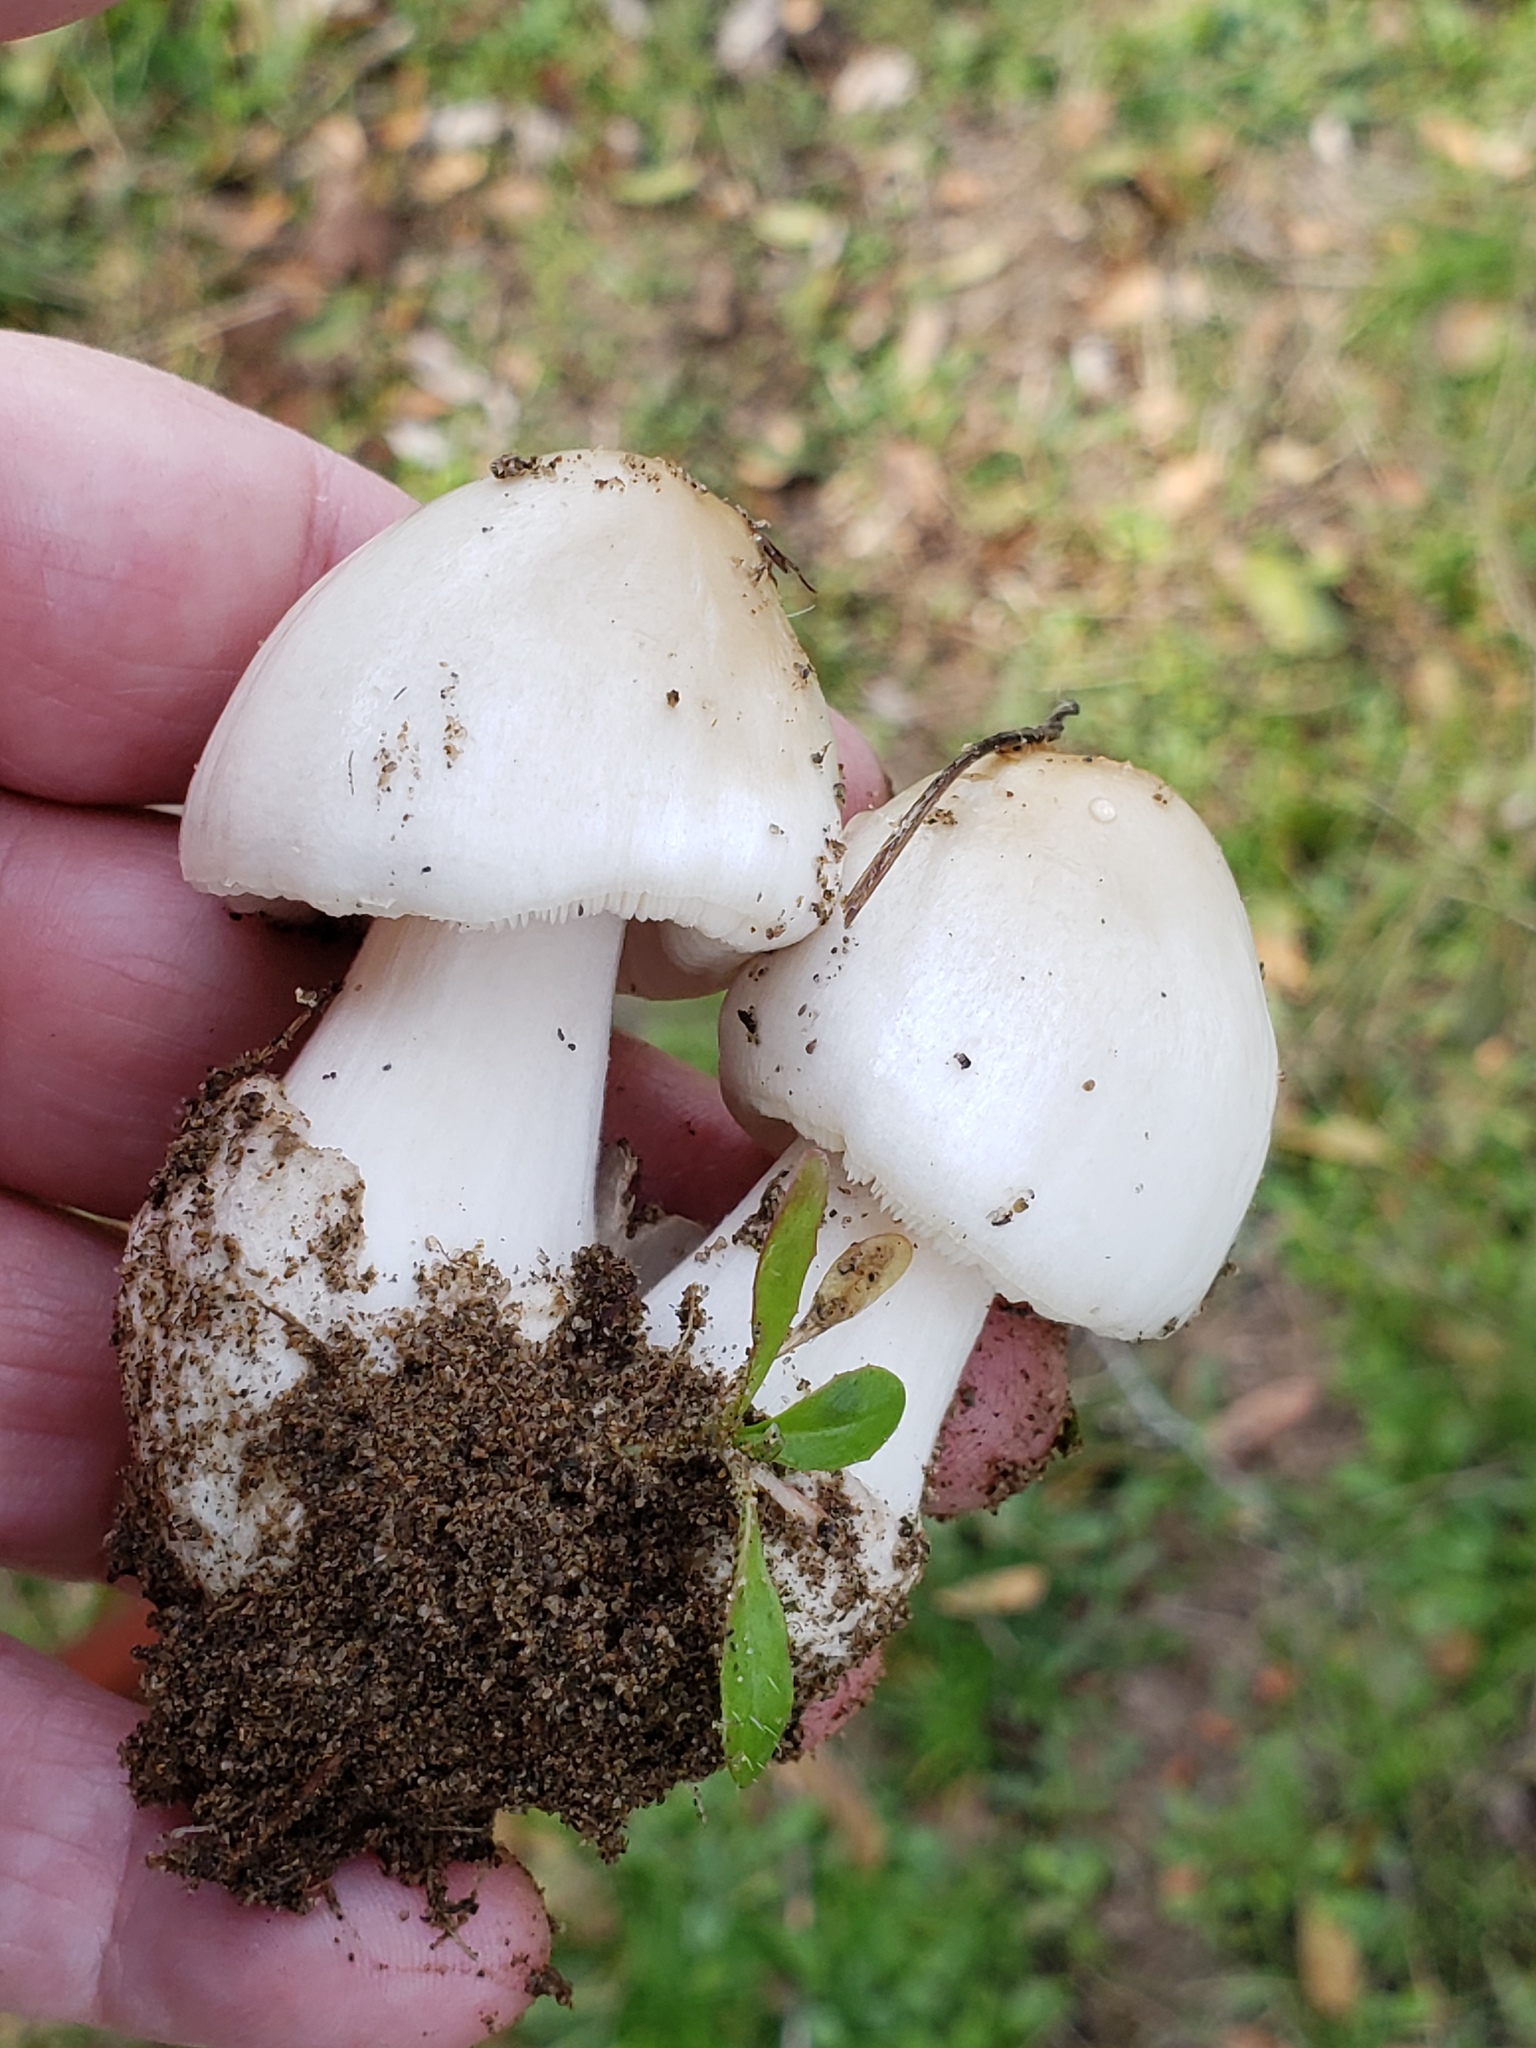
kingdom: Fungi
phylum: Basidiomycota
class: Agaricomycetes
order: Agaricales
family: Pluteaceae
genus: Volvopluteus
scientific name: Volvopluteus gloiocephalus
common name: Stubble rosegill
